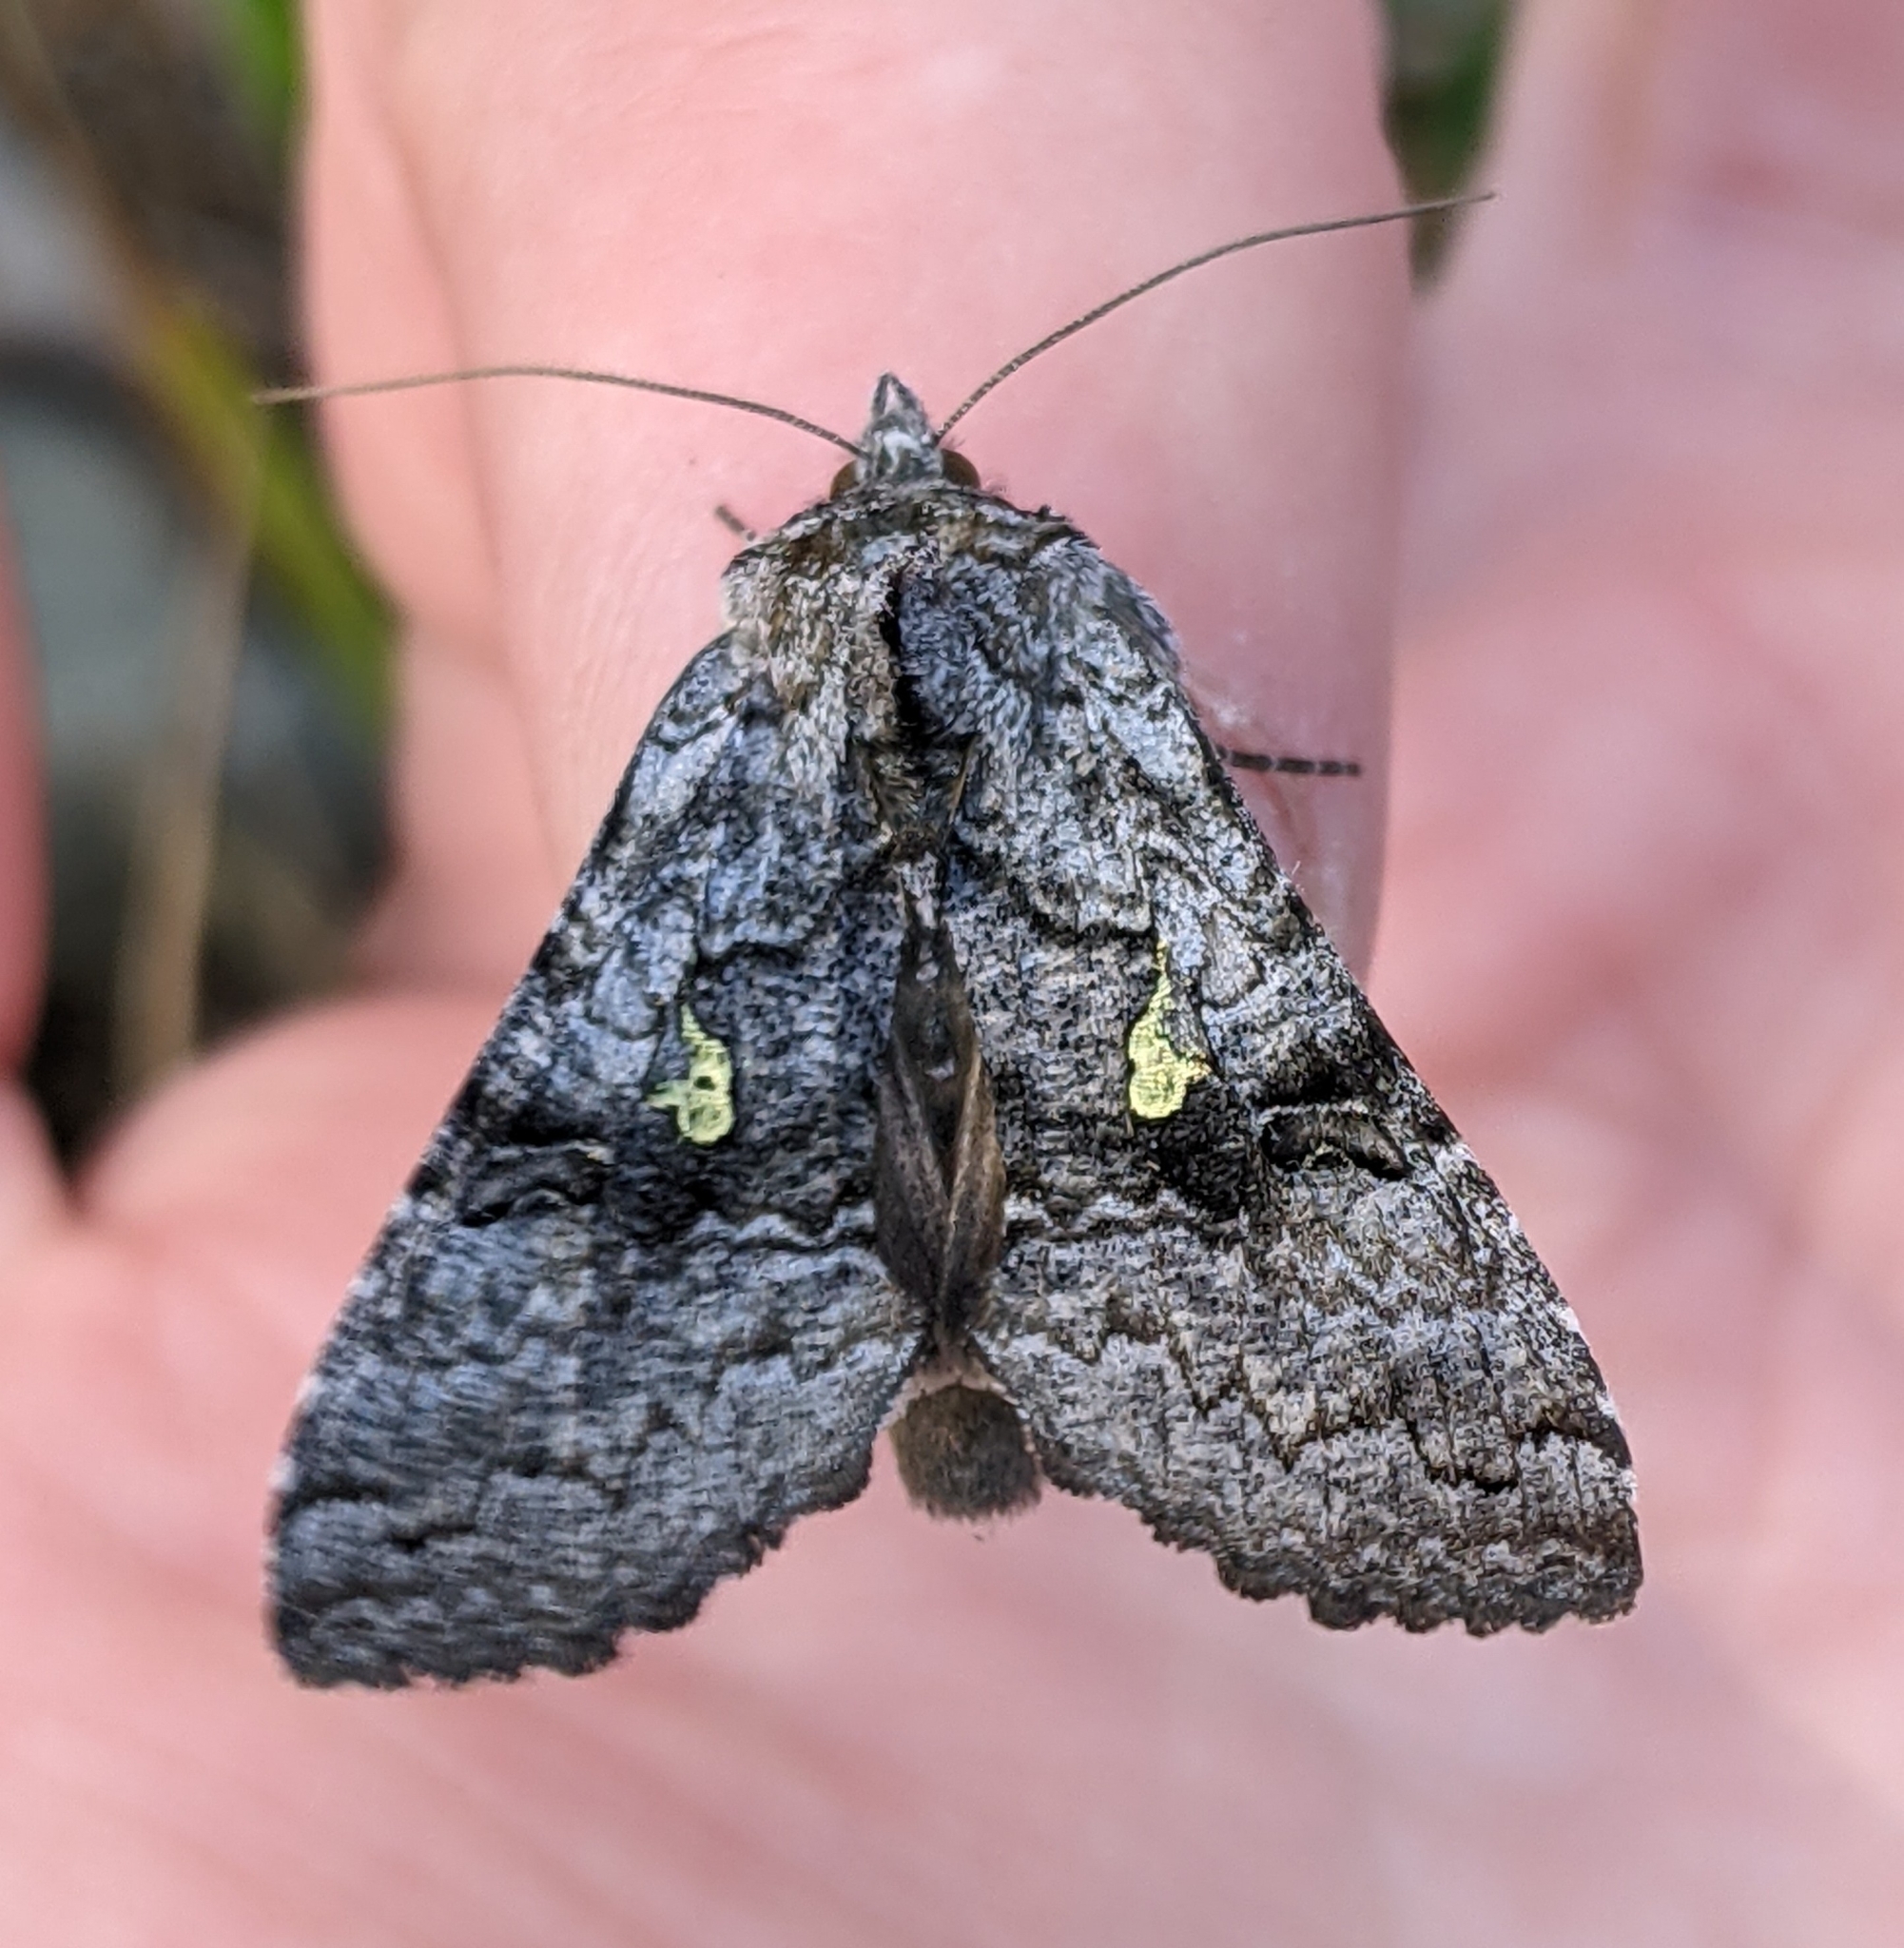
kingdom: Animalia
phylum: Arthropoda
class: Insecta
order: Lepidoptera
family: Noctuidae
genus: Syngrapha
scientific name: Syngrapha viridisigma
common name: Spruce false looper moth
